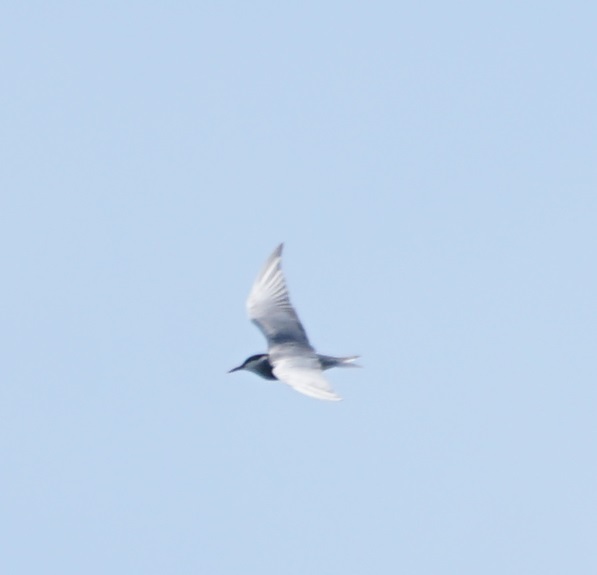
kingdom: Animalia
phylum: Chordata
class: Aves
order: Charadriiformes
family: Laridae
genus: Chlidonias
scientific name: Chlidonias hybrida
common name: Whiskered tern
